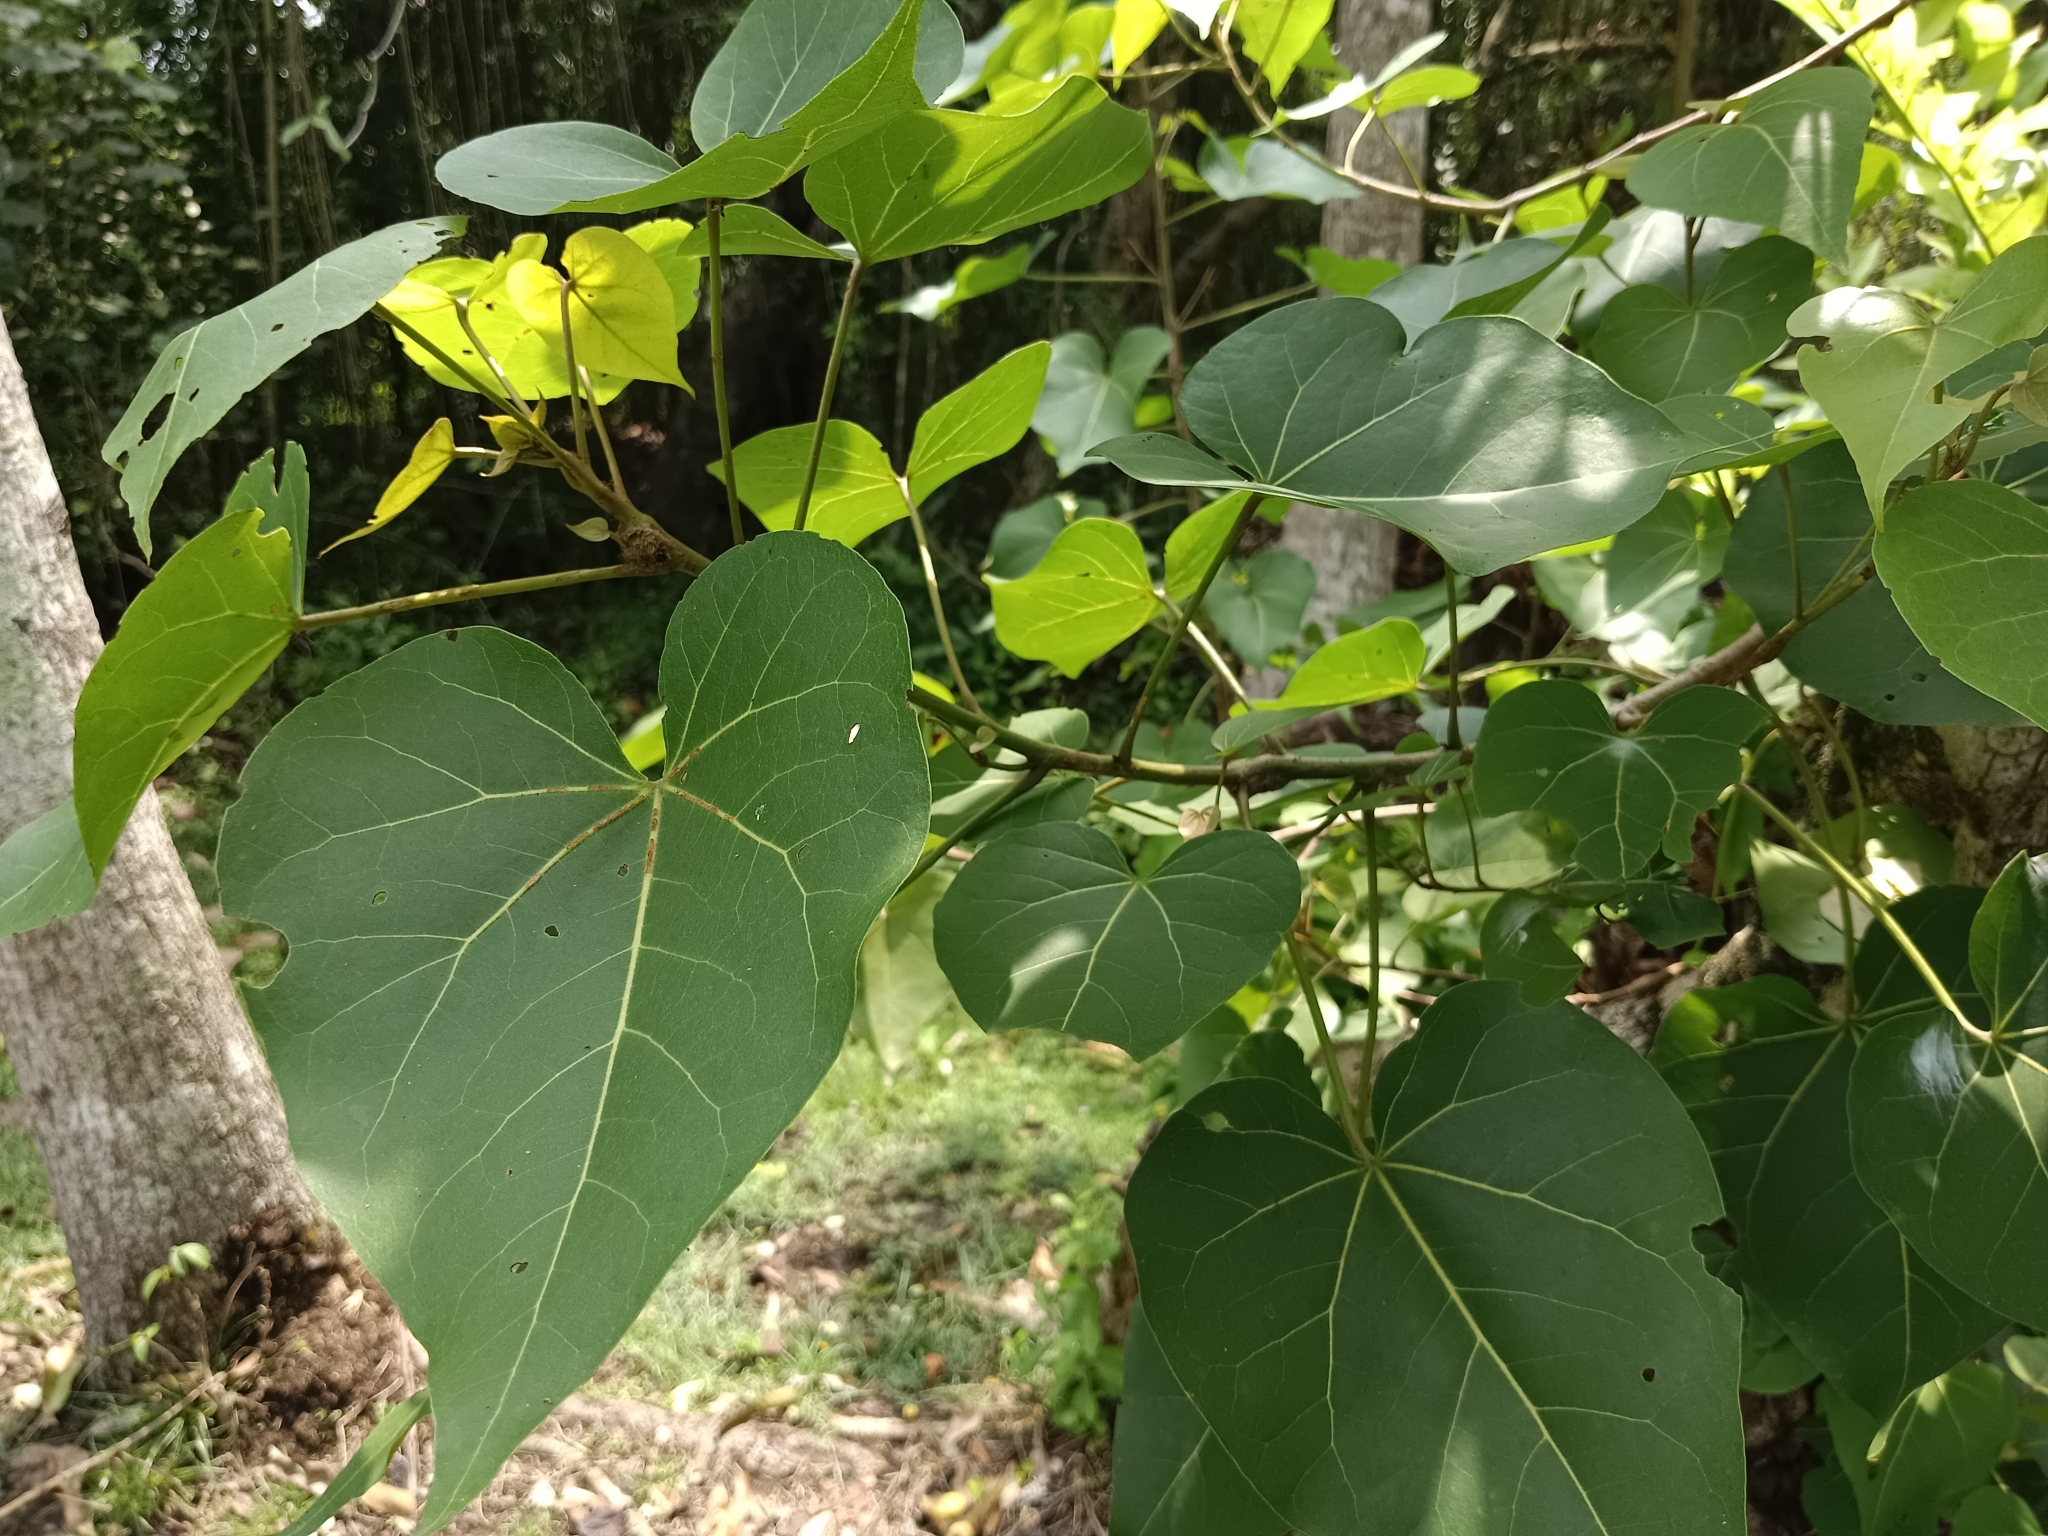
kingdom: Plantae
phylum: Tracheophyta
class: Magnoliopsida
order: Malvales
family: Malvaceae
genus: Thespesia
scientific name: Thespesia populnea
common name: Seaside mahoe
